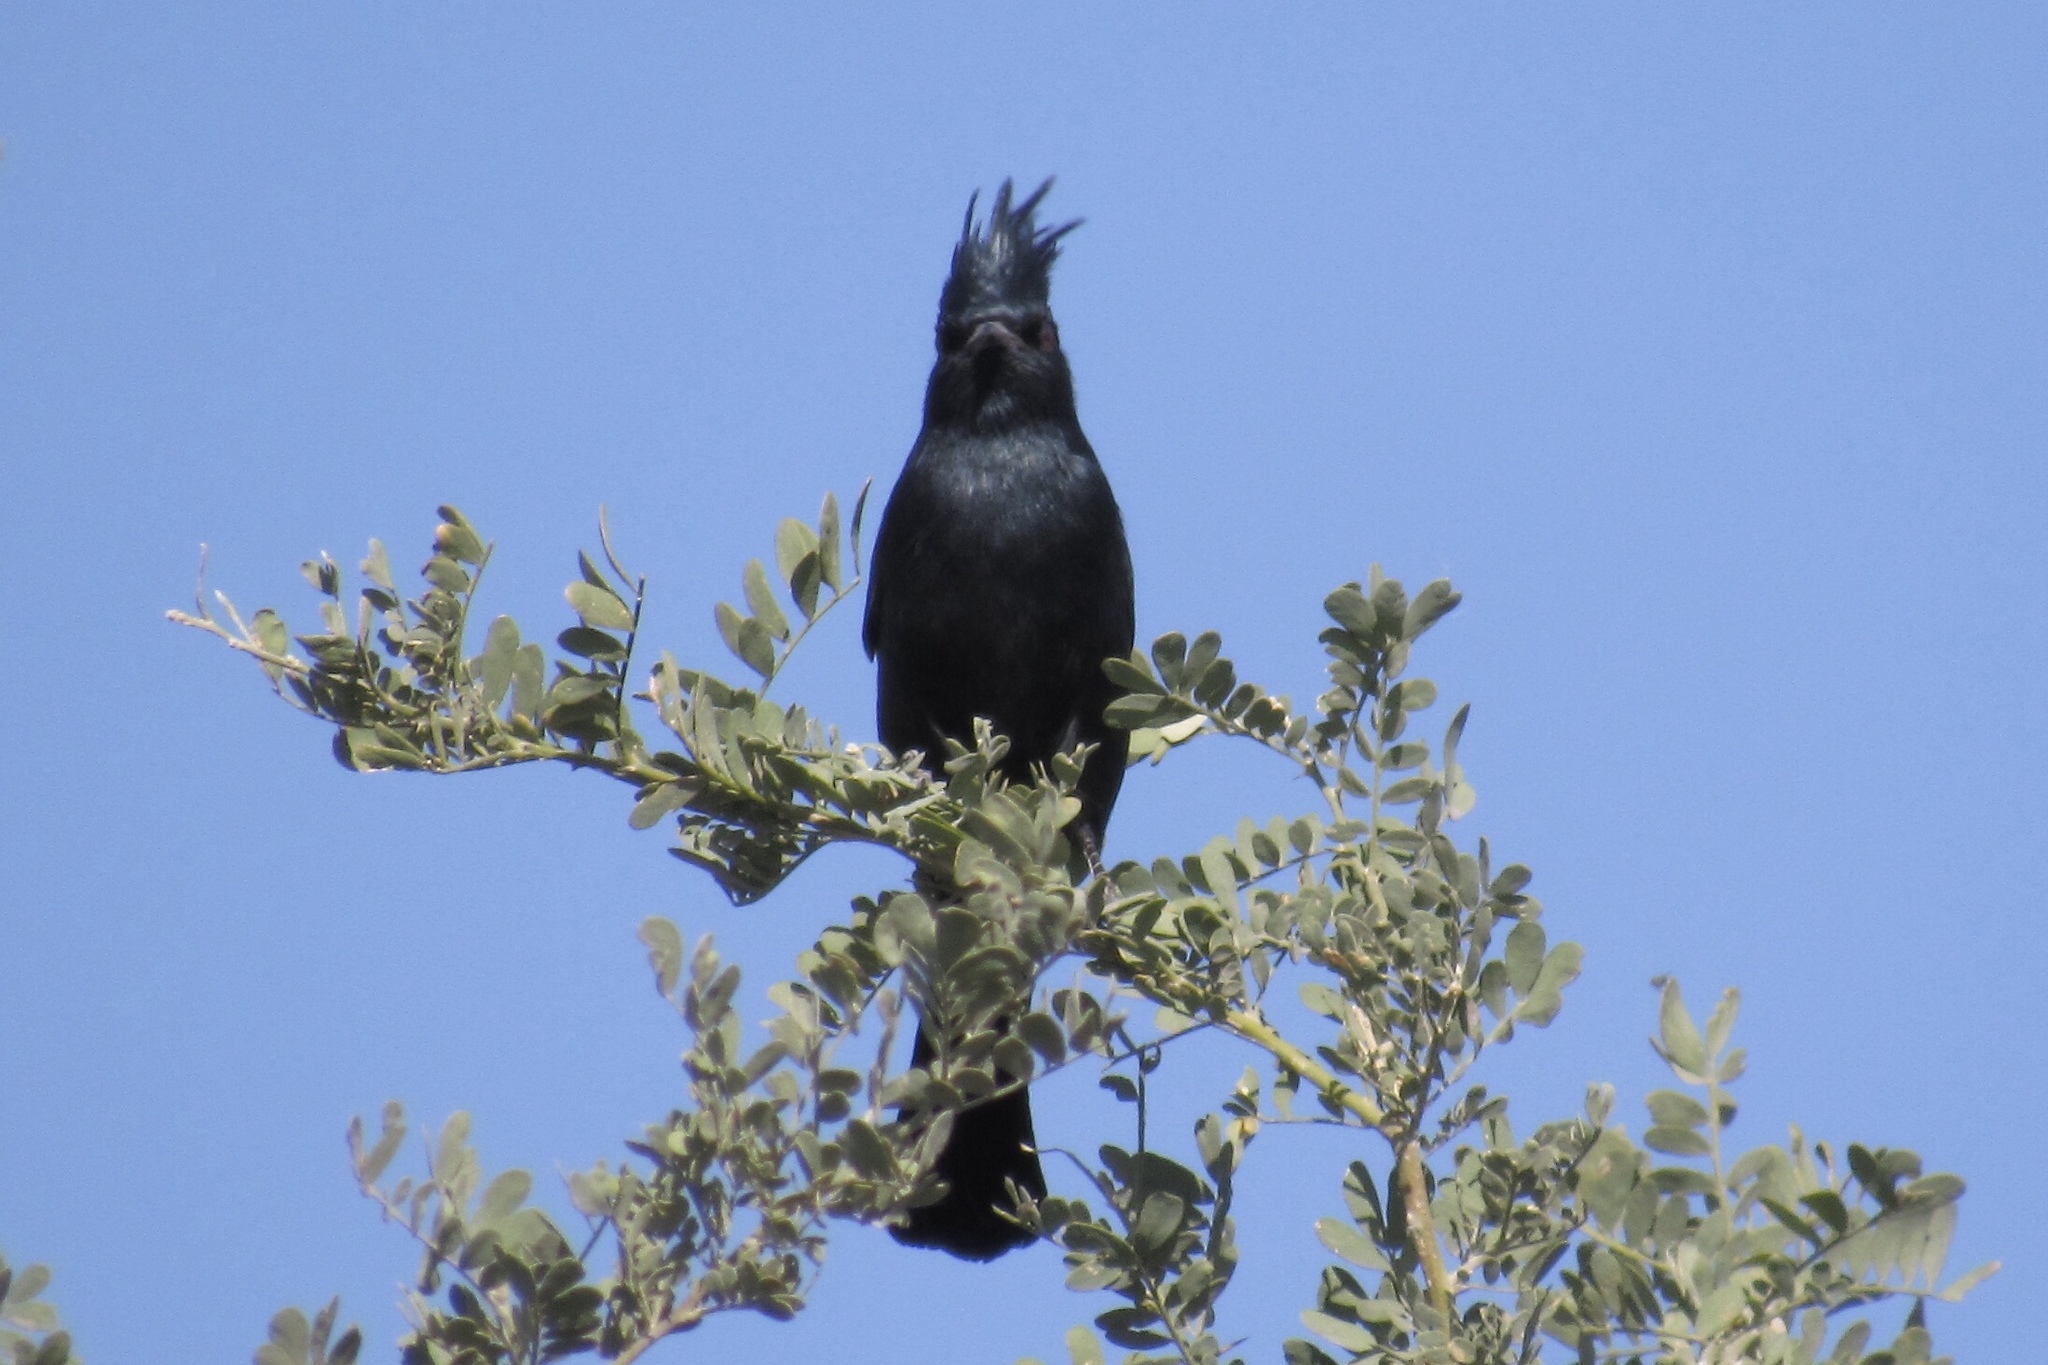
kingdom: Animalia
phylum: Chordata
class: Aves
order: Passeriformes
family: Ptilogonatidae
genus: Phainopepla
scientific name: Phainopepla nitens
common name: Phainopepla
